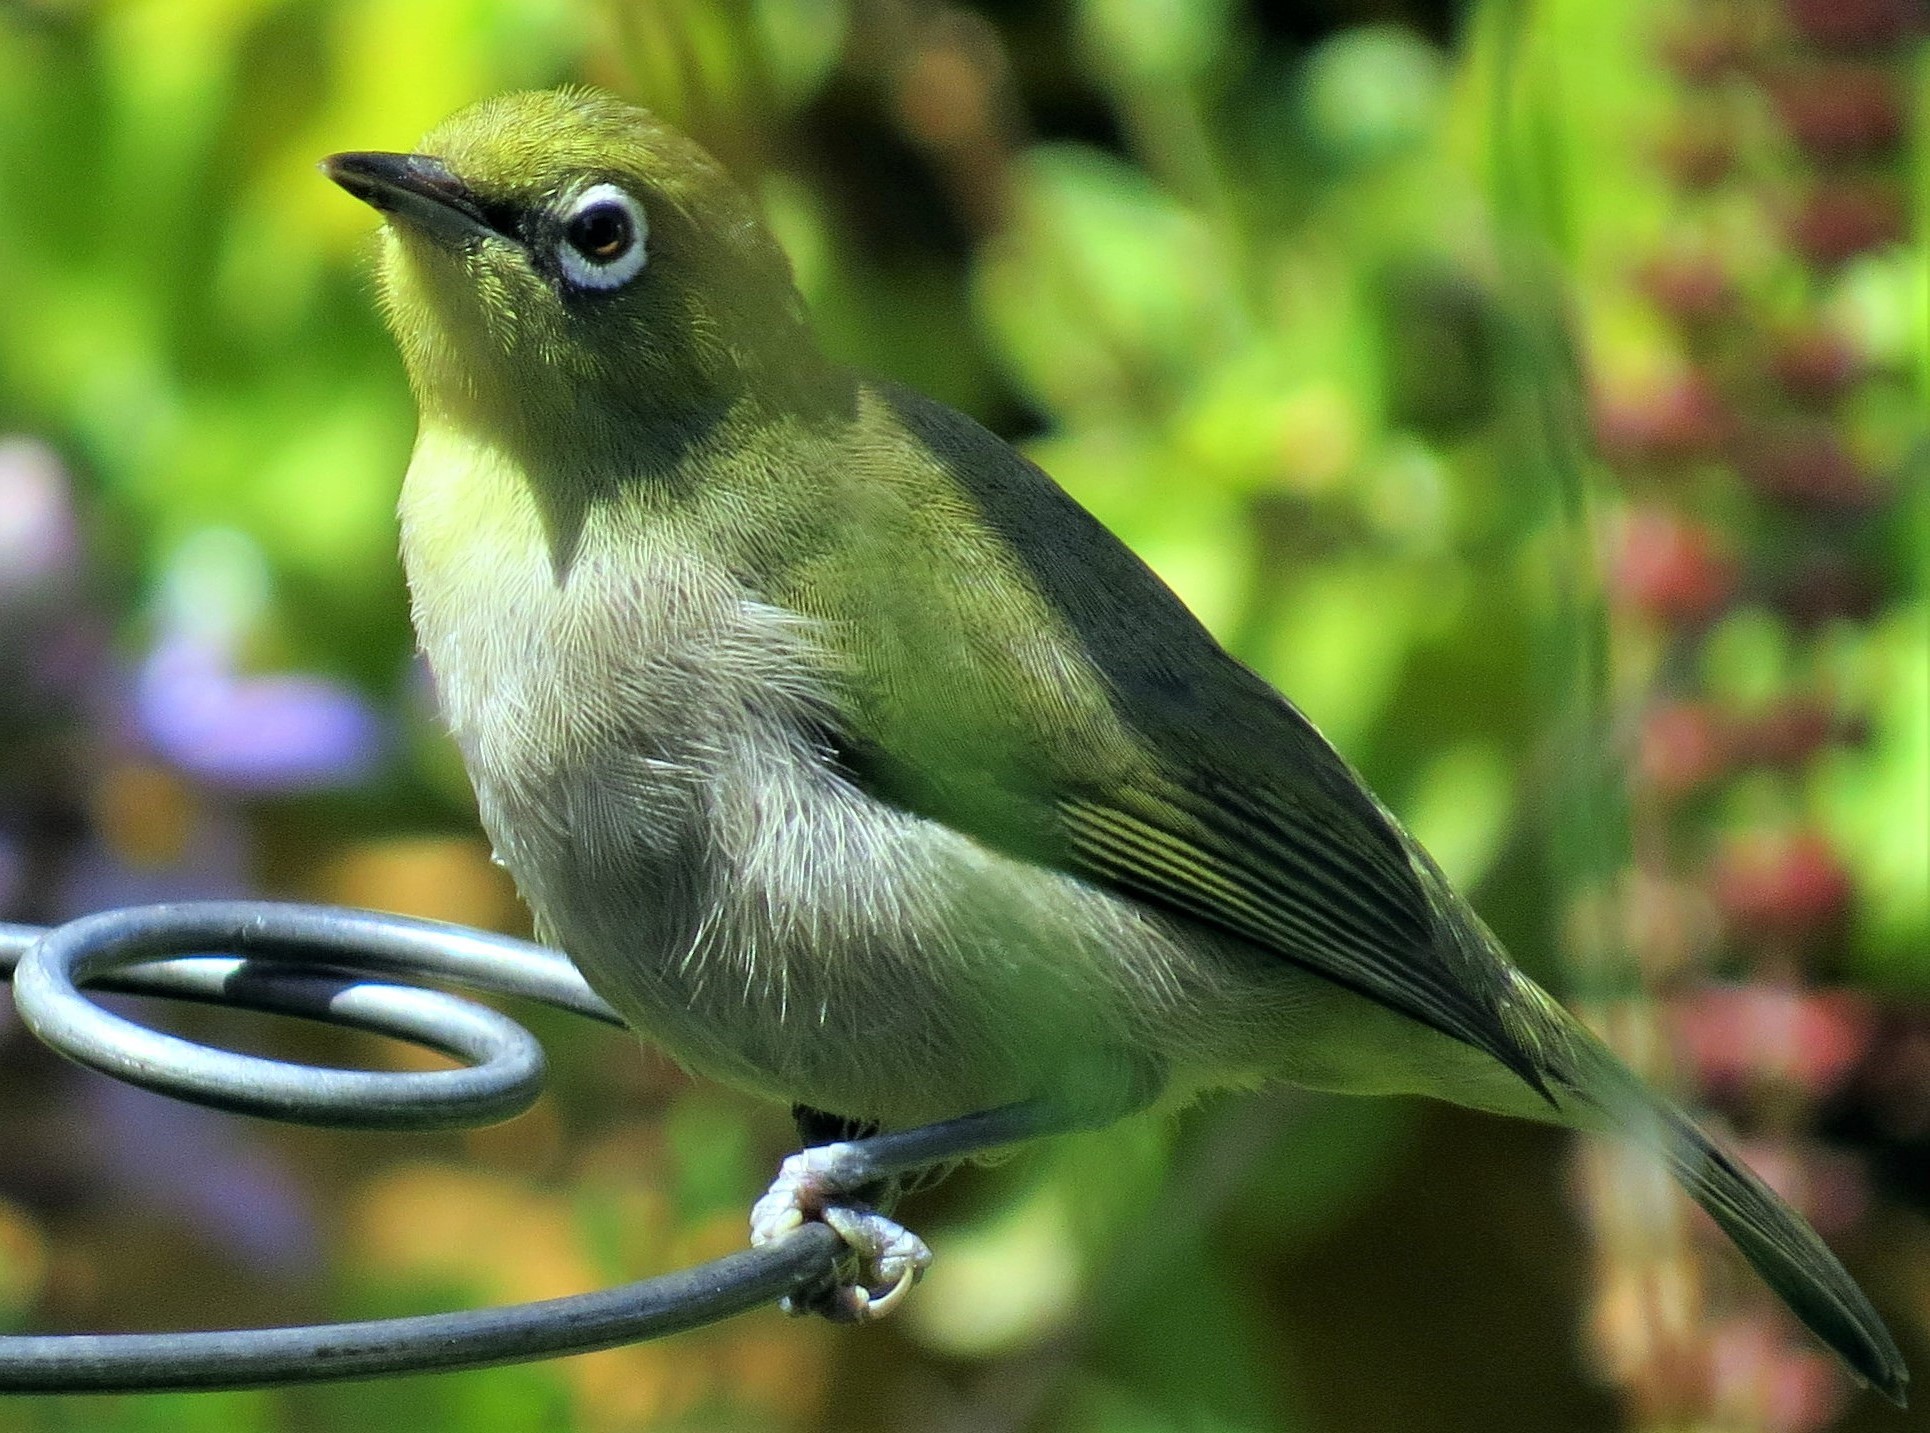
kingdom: Animalia
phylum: Chordata
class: Aves
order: Passeriformes
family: Zosteropidae
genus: Zosterops
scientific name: Zosterops virens
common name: Cape white-eye
